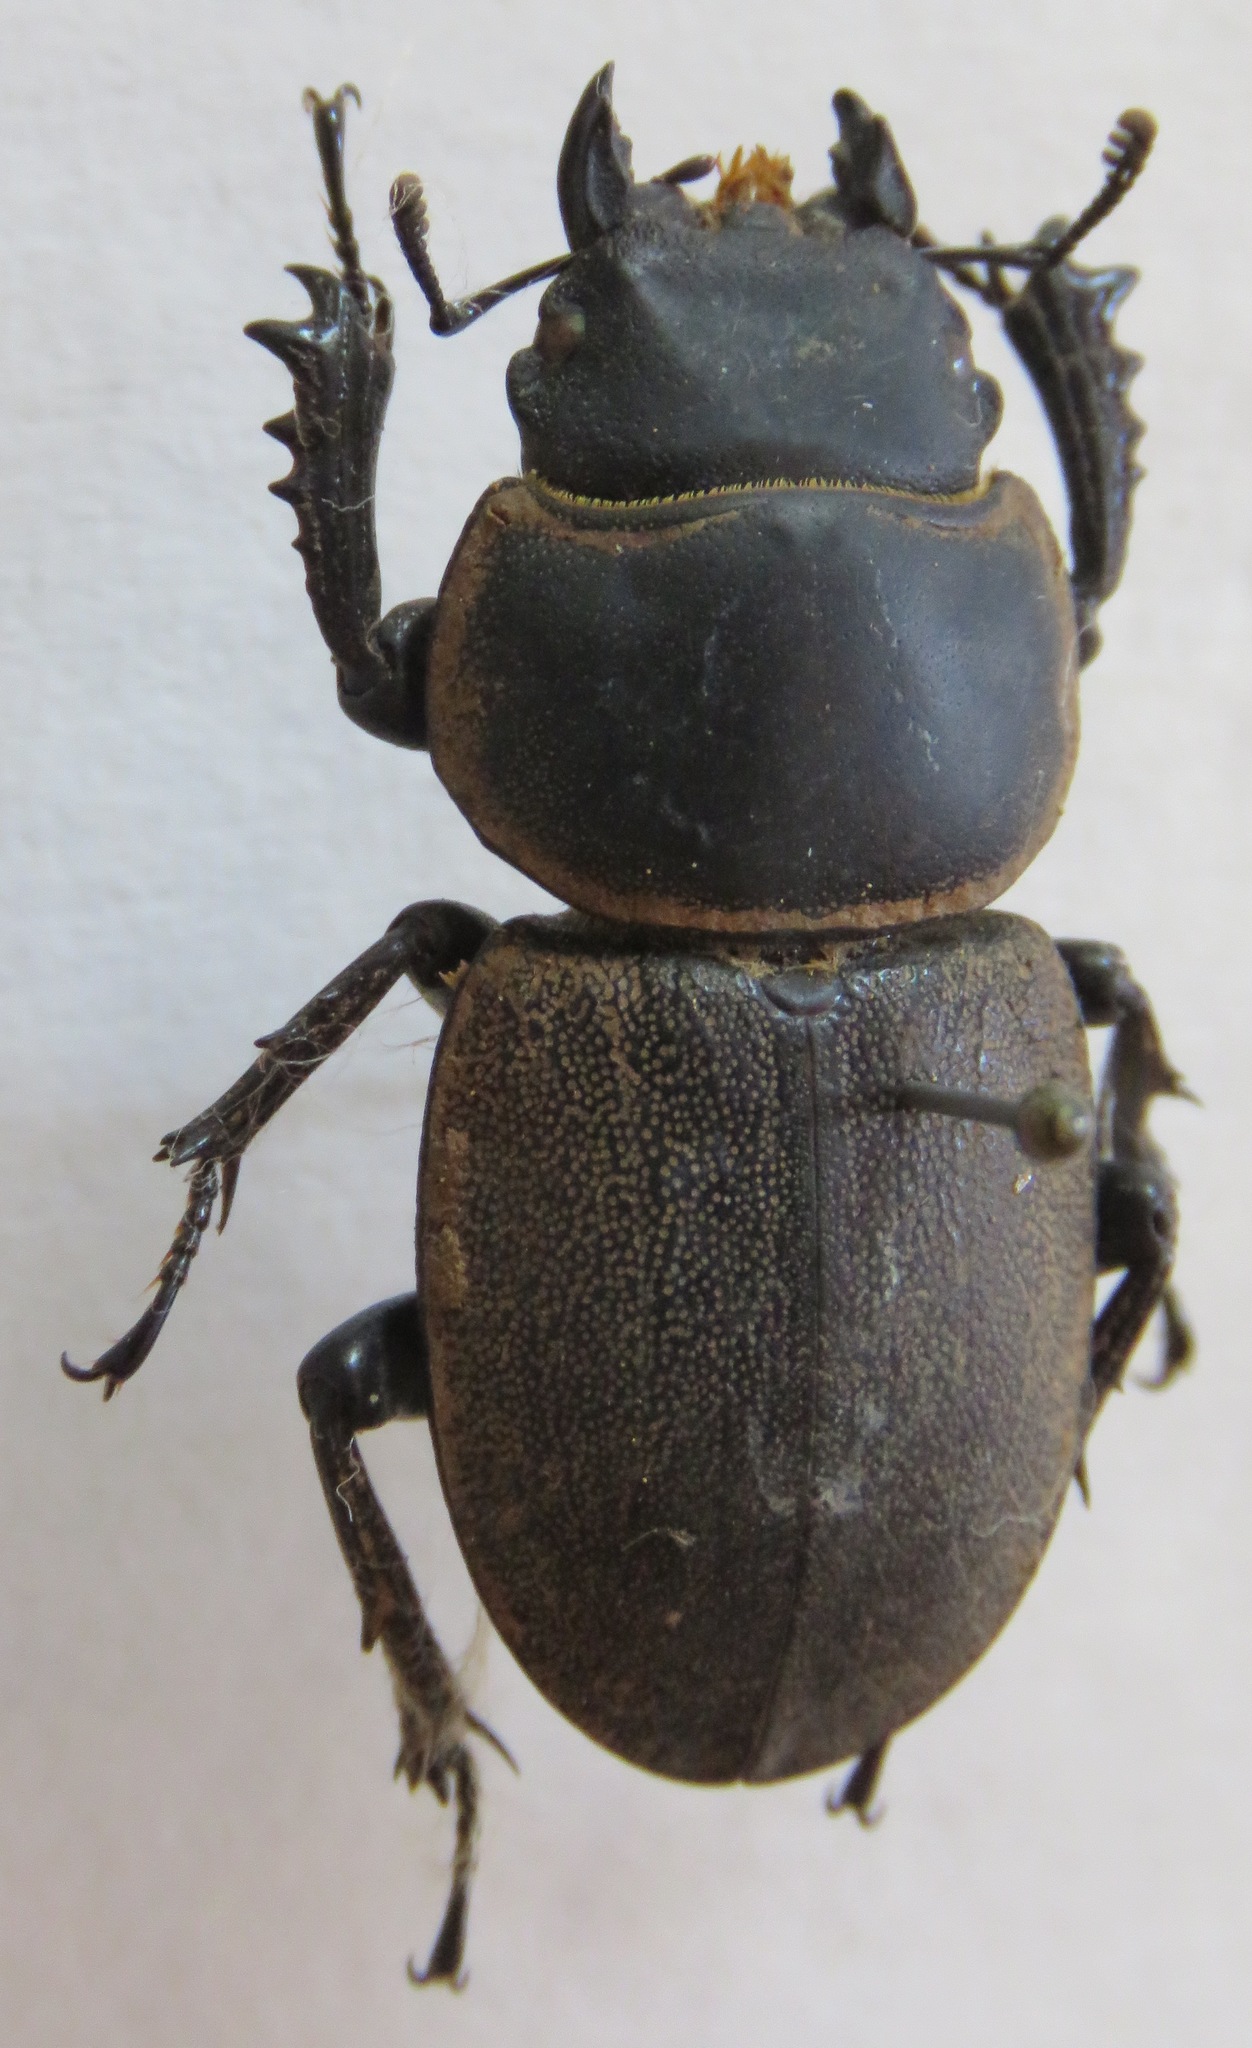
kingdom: Animalia
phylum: Arthropoda
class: Insecta
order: Coleoptera
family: Lucanidae
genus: Apterodorcus
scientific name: Apterodorcus bacchus
